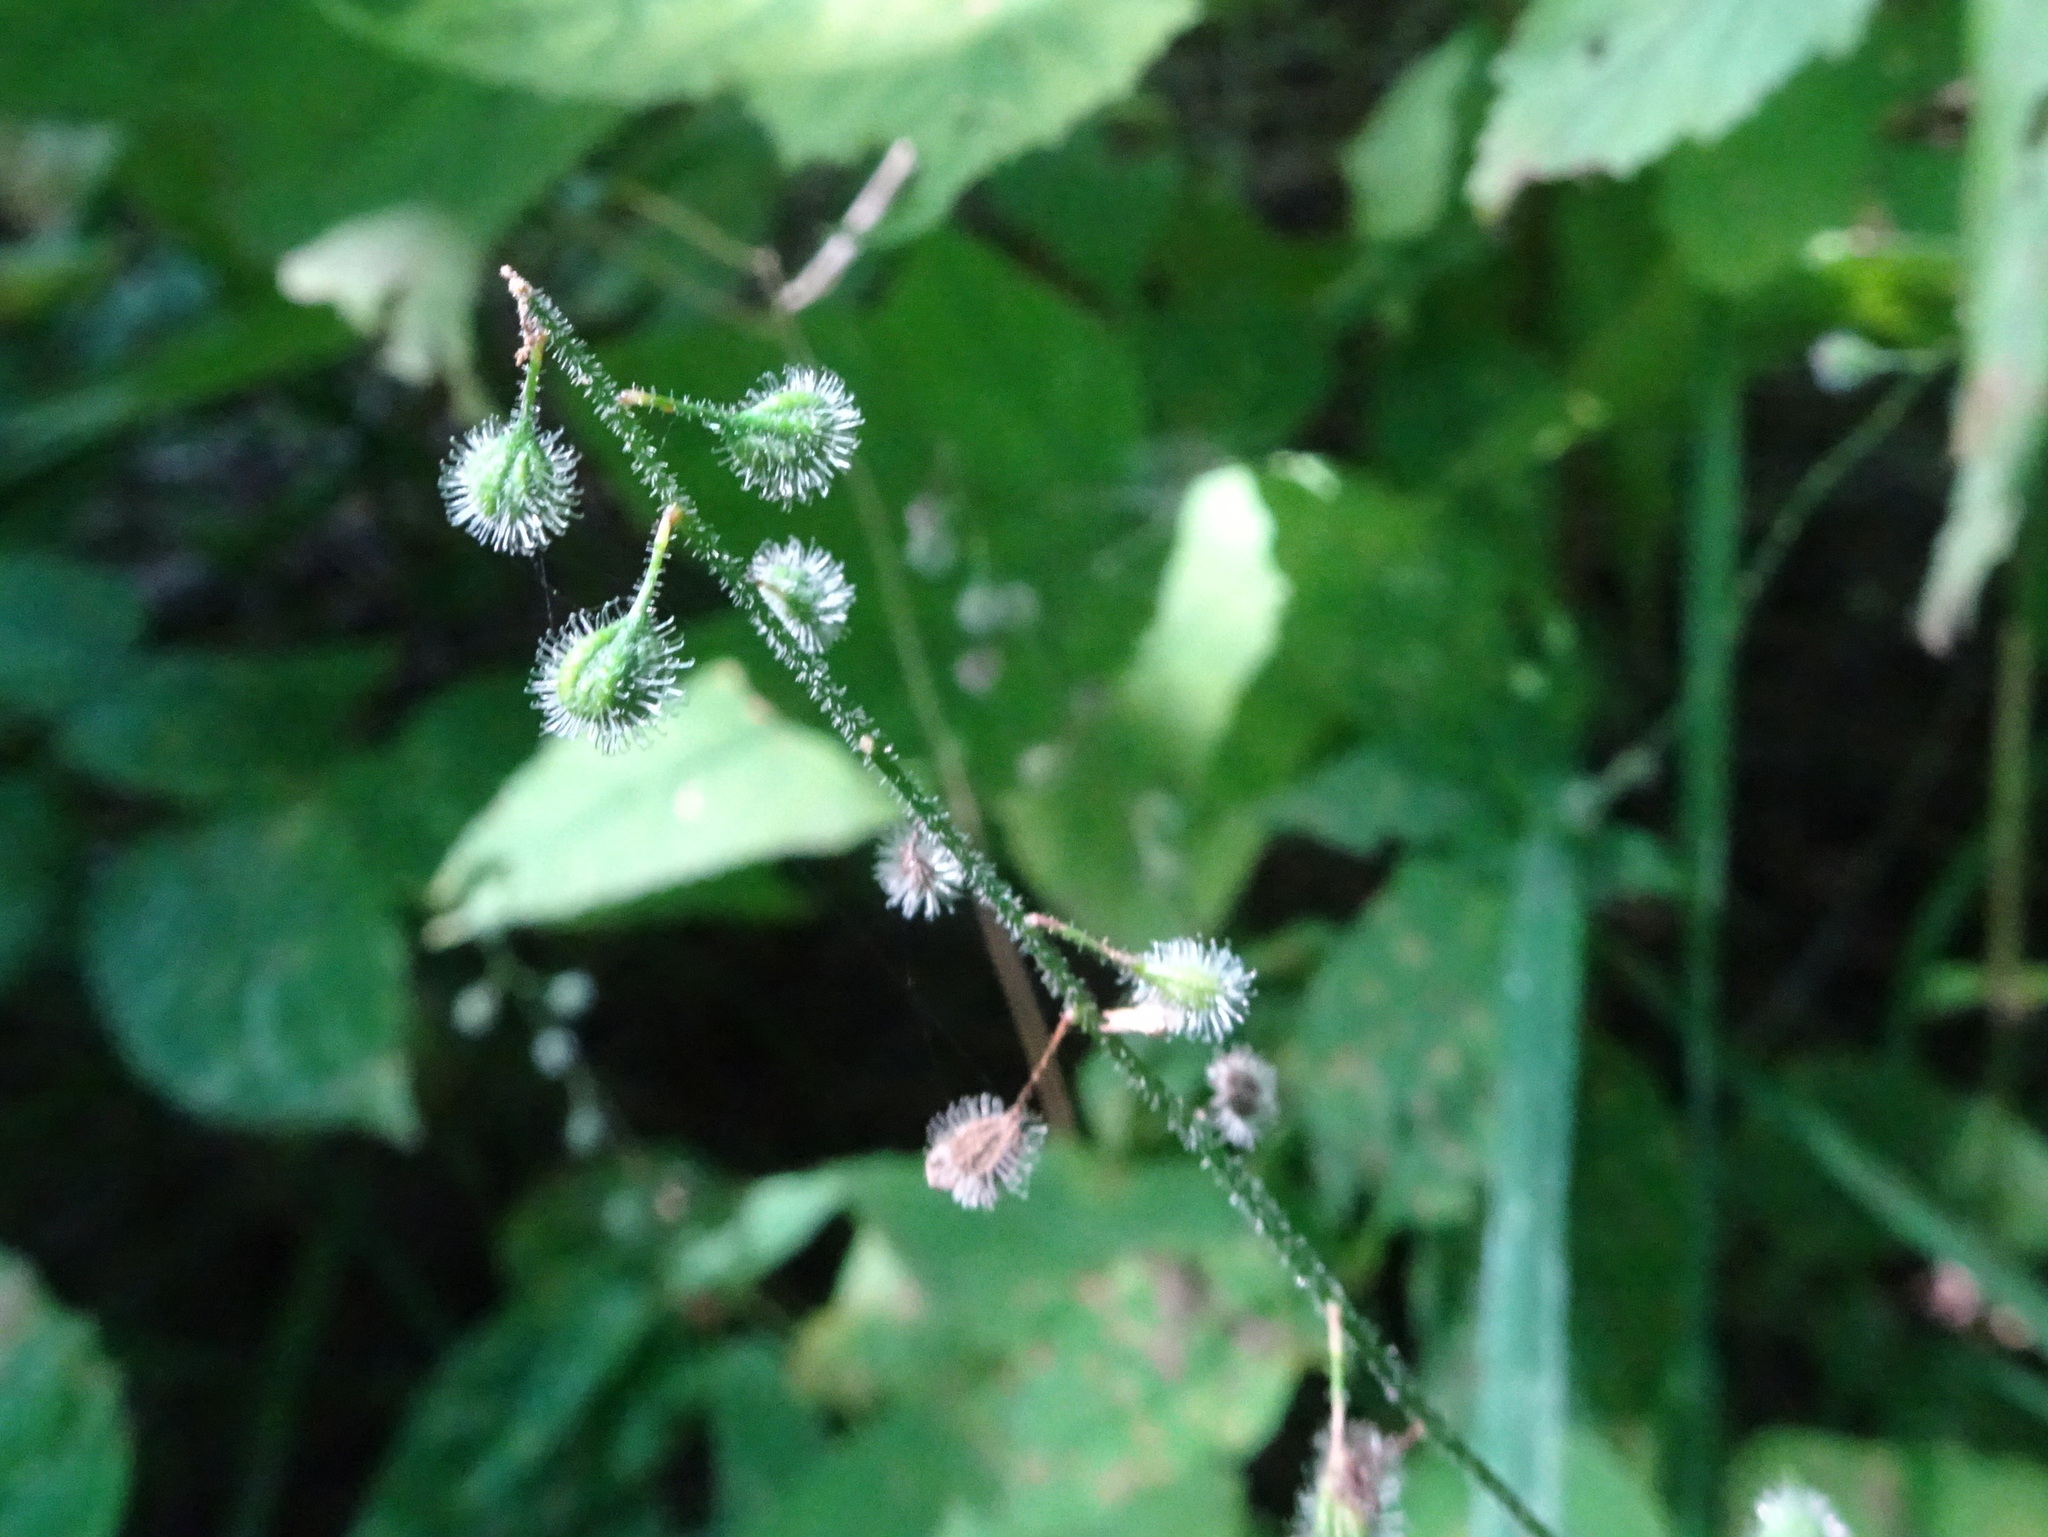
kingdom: Plantae
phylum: Tracheophyta
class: Magnoliopsida
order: Myrtales
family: Onagraceae
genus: Circaea
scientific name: Circaea canadensis
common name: Broad-leaved enchanter's nightshade
